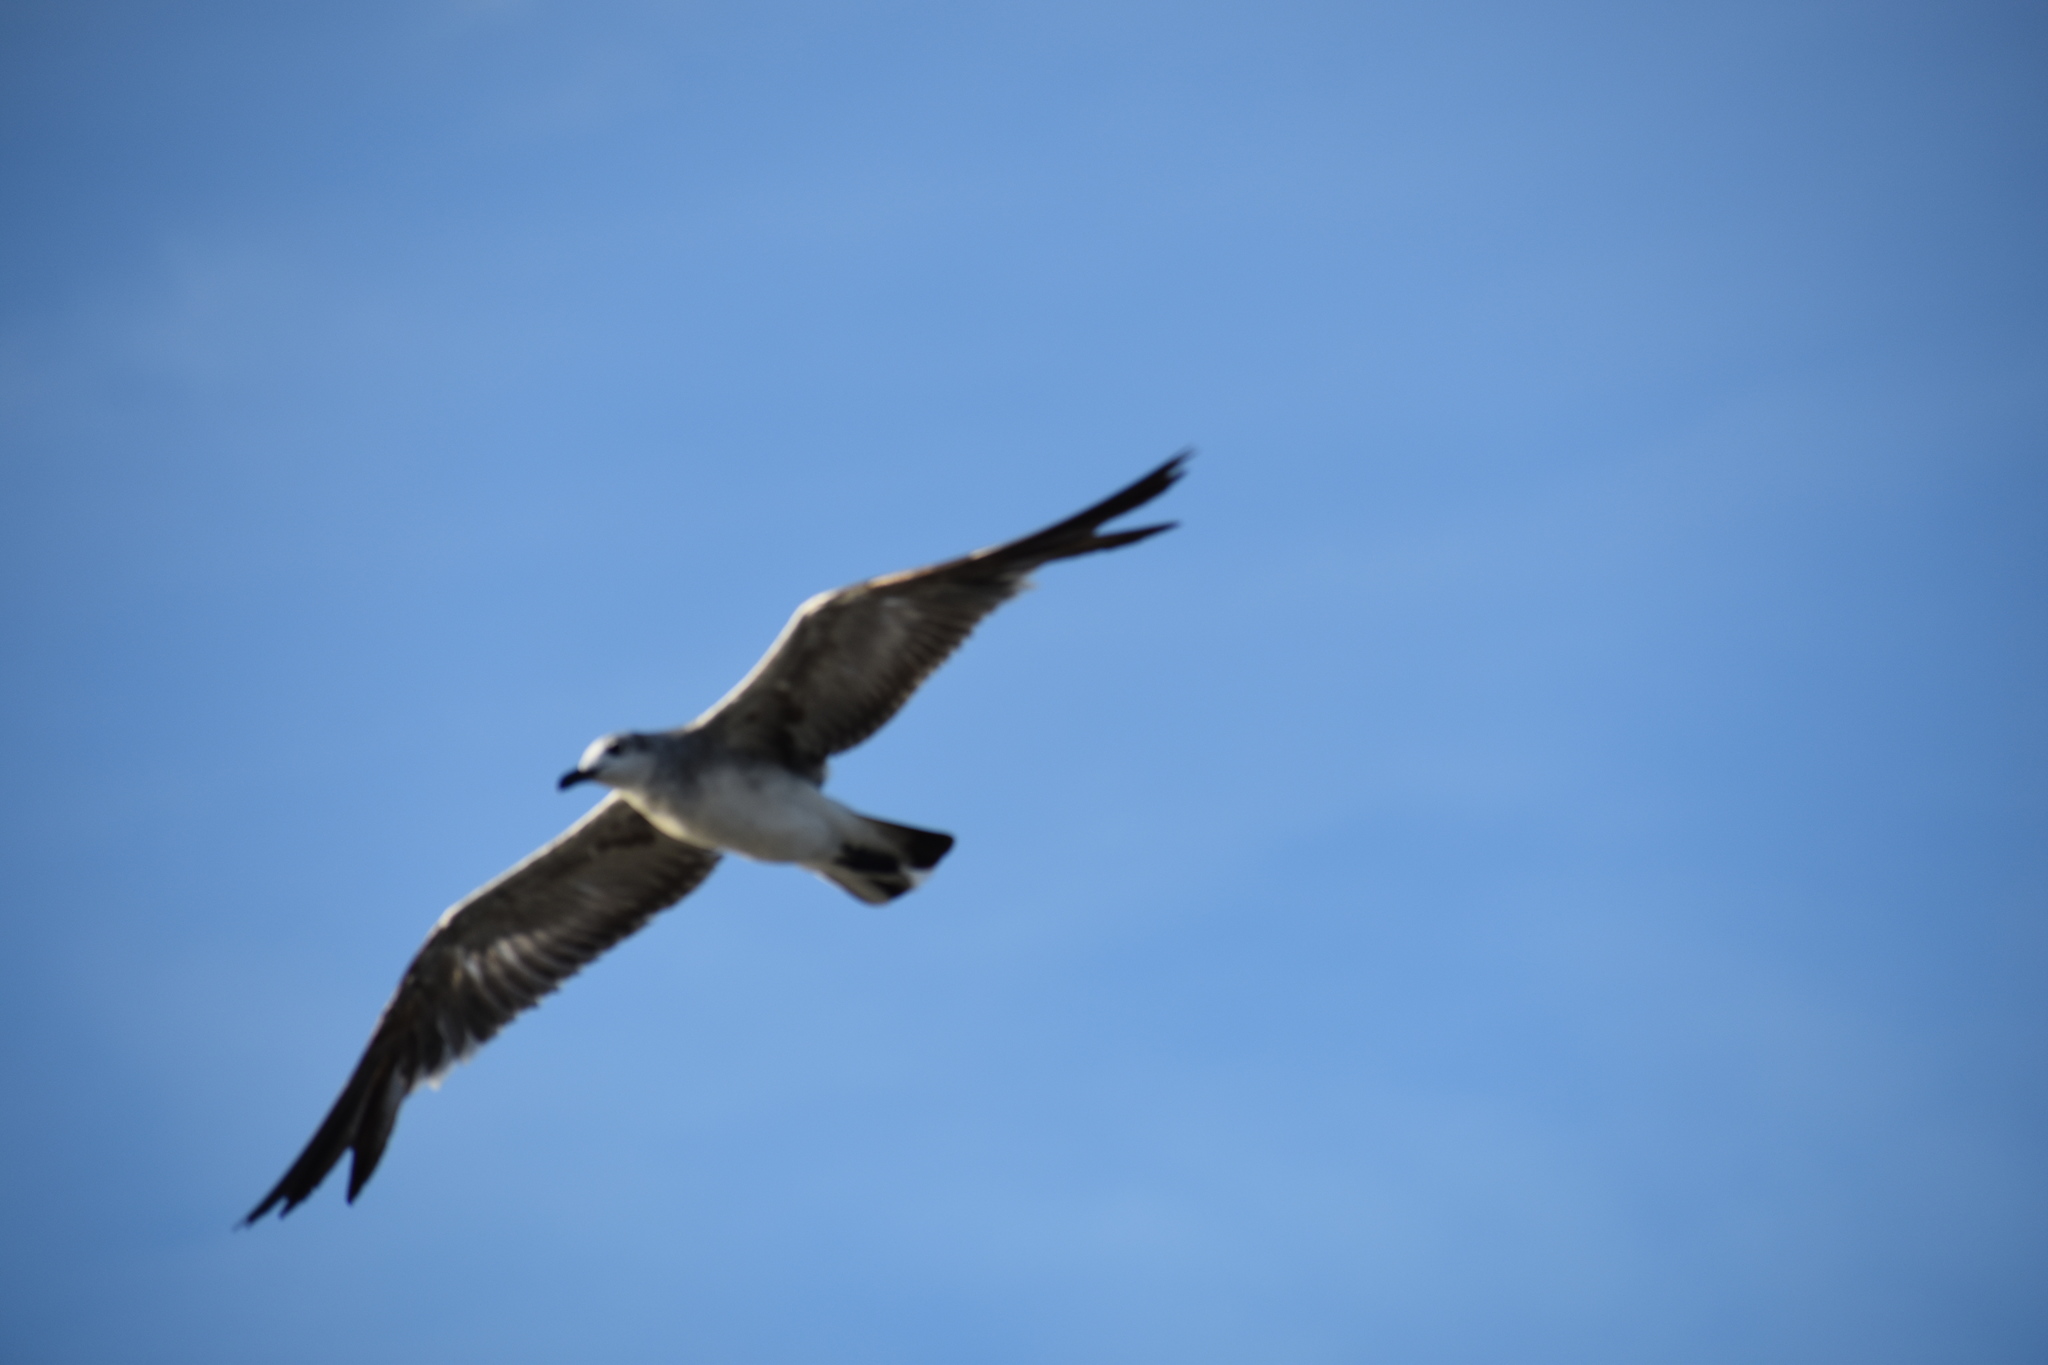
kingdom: Animalia
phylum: Chordata
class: Aves
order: Charadriiformes
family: Laridae
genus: Leucophaeus
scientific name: Leucophaeus atricilla
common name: Laughing gull
